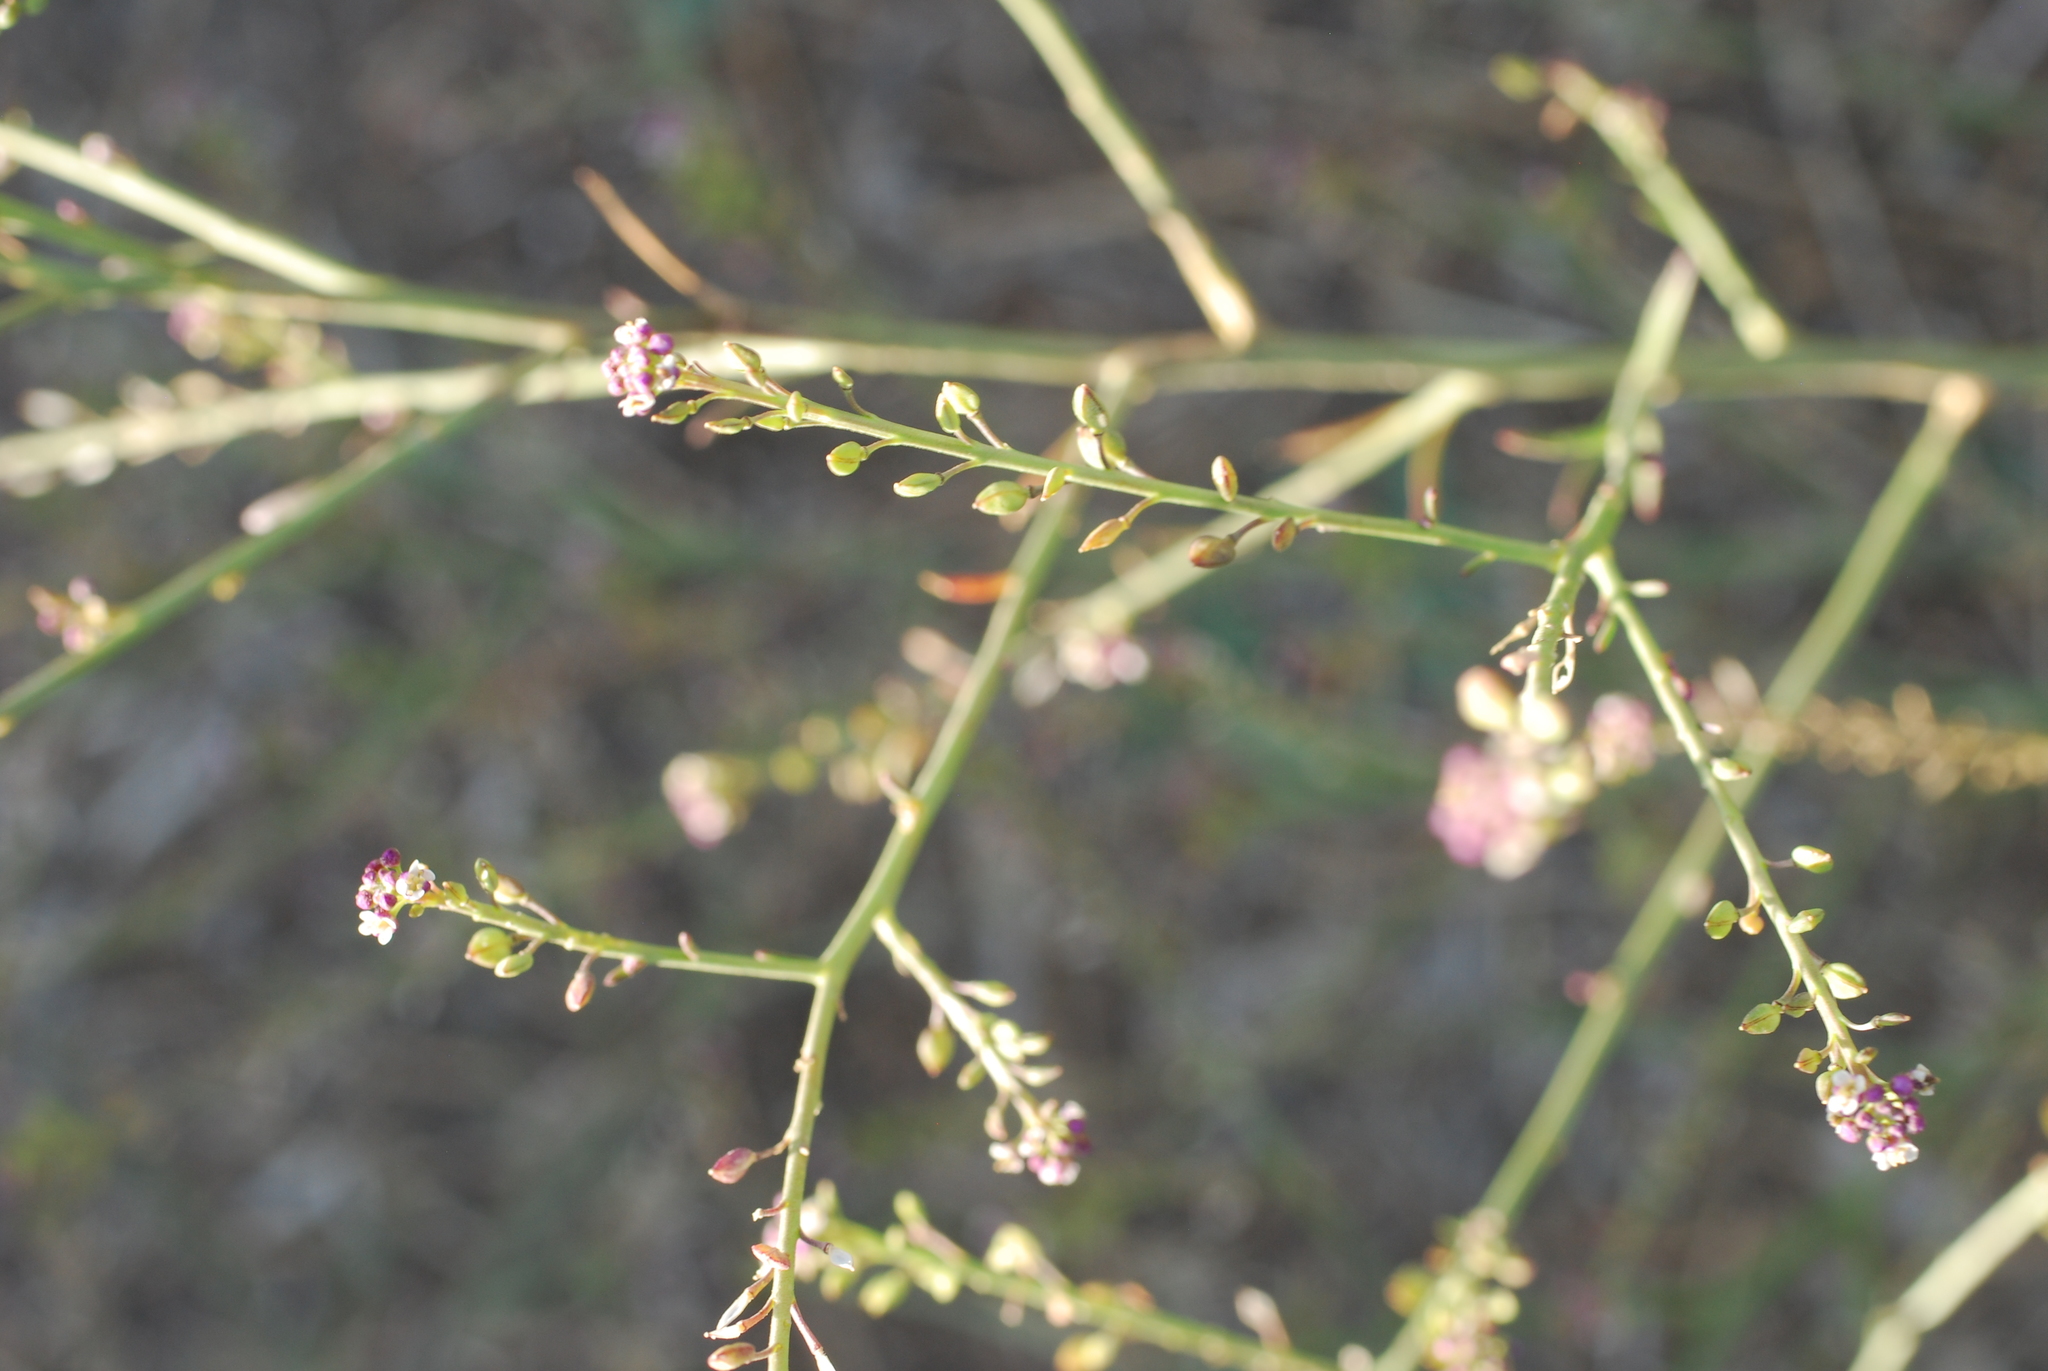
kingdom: Plantae
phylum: Tracheophyta
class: Magnoliopsida
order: Brassicales
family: Brassicaceae
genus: Lepidium
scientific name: Lepidium graminifolium
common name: Tall pepperwort
